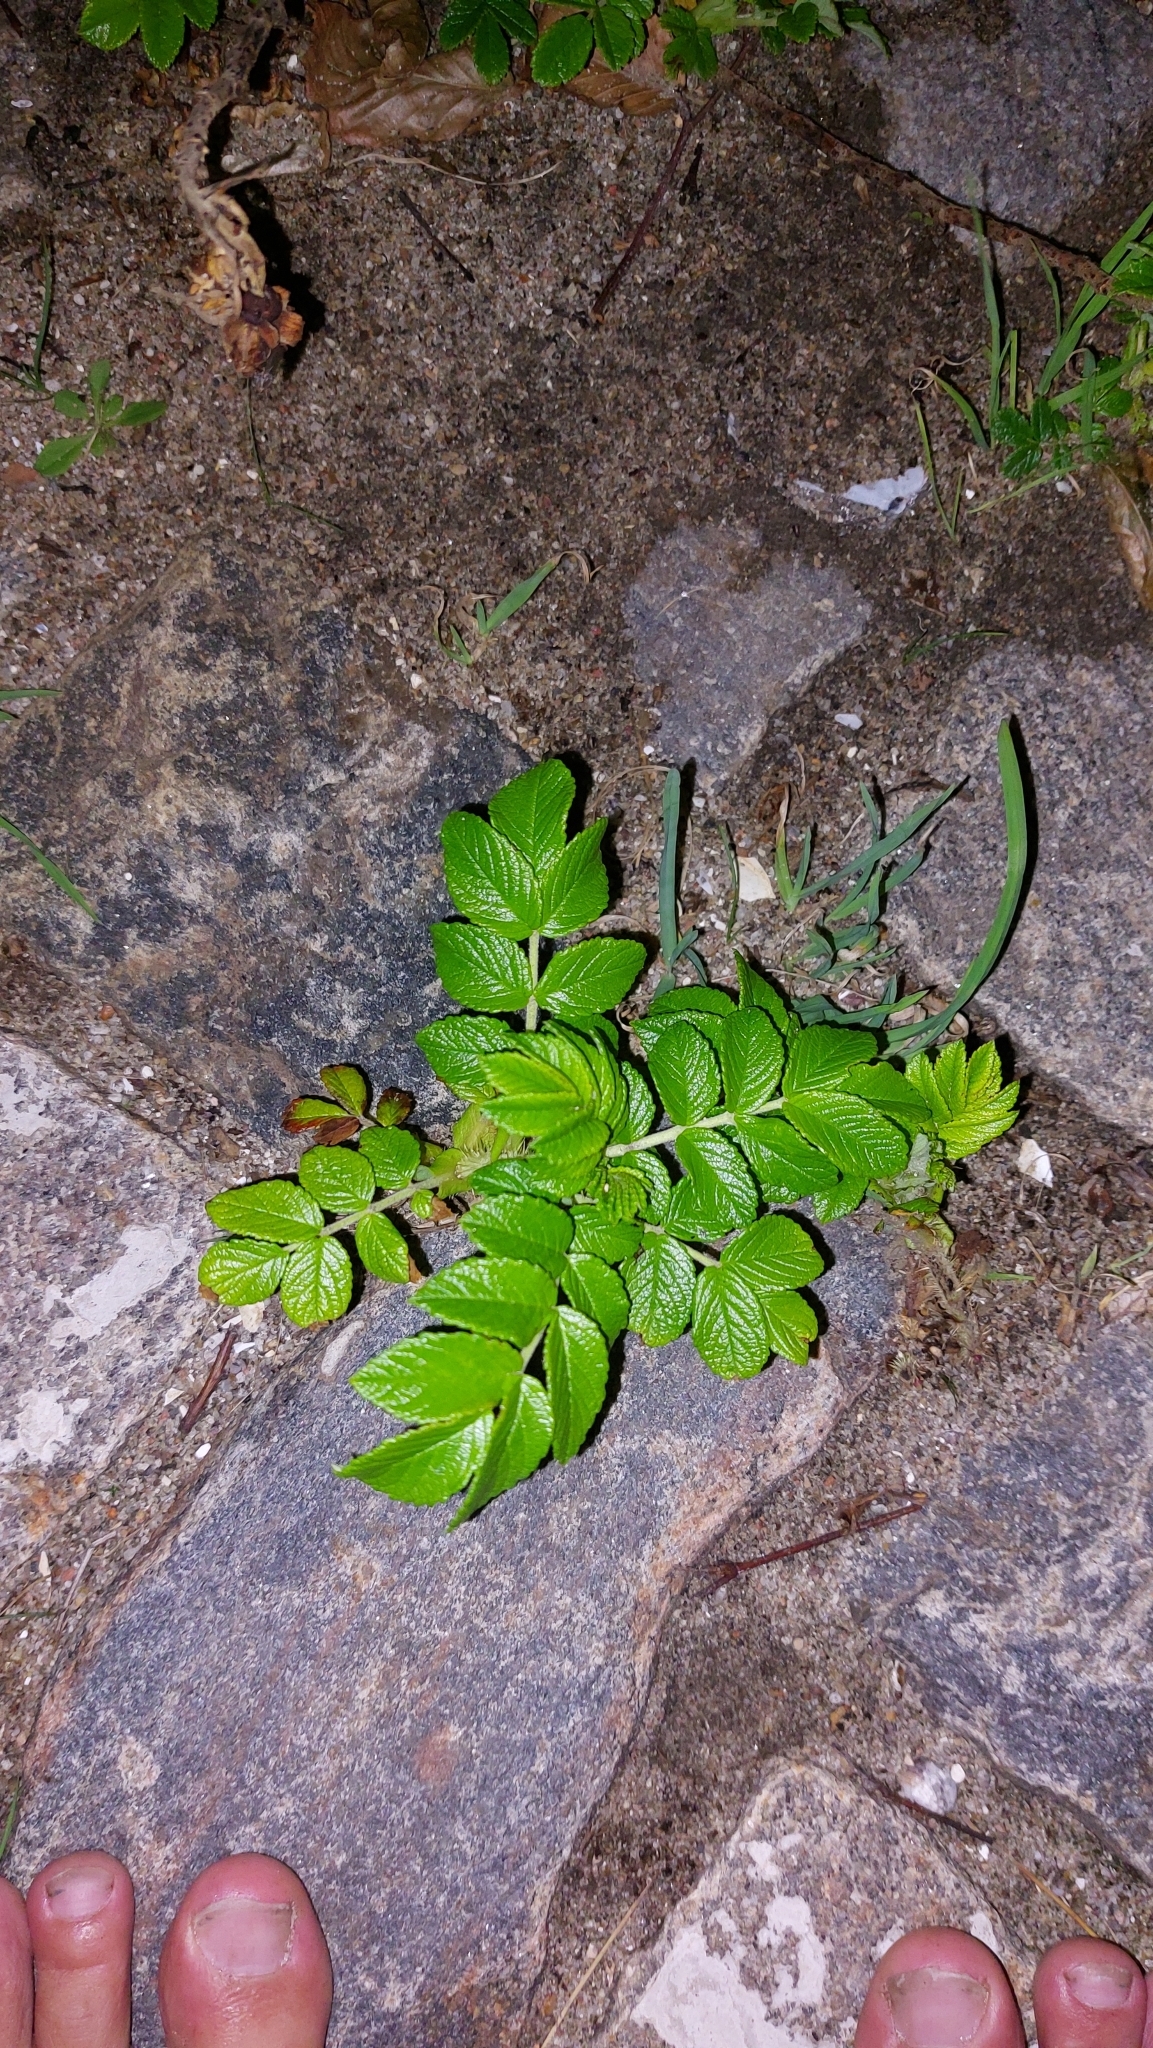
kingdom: Plantae
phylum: Tracheophyta
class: Magnoliopsida
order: Rosales
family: Rosaceae
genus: Rosa
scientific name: Rosa rugosa
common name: Japanese rose
